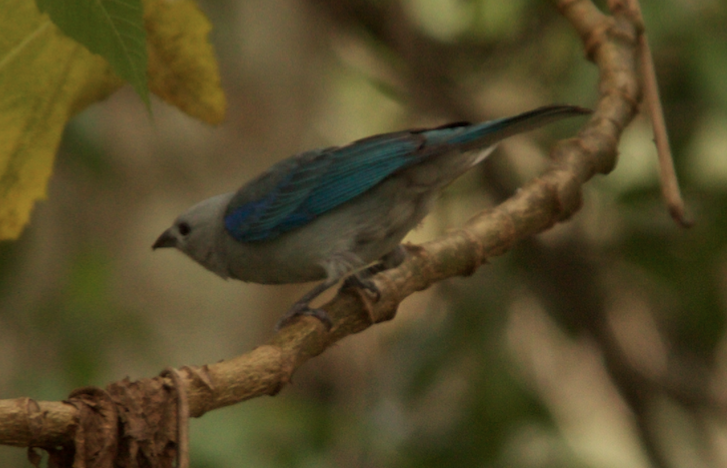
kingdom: Animalia
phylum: Chordata
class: Aves
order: Passeriformes
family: Thraupidae
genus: Thraupis
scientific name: Thraupis episcopus
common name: Blue-grey tanager
